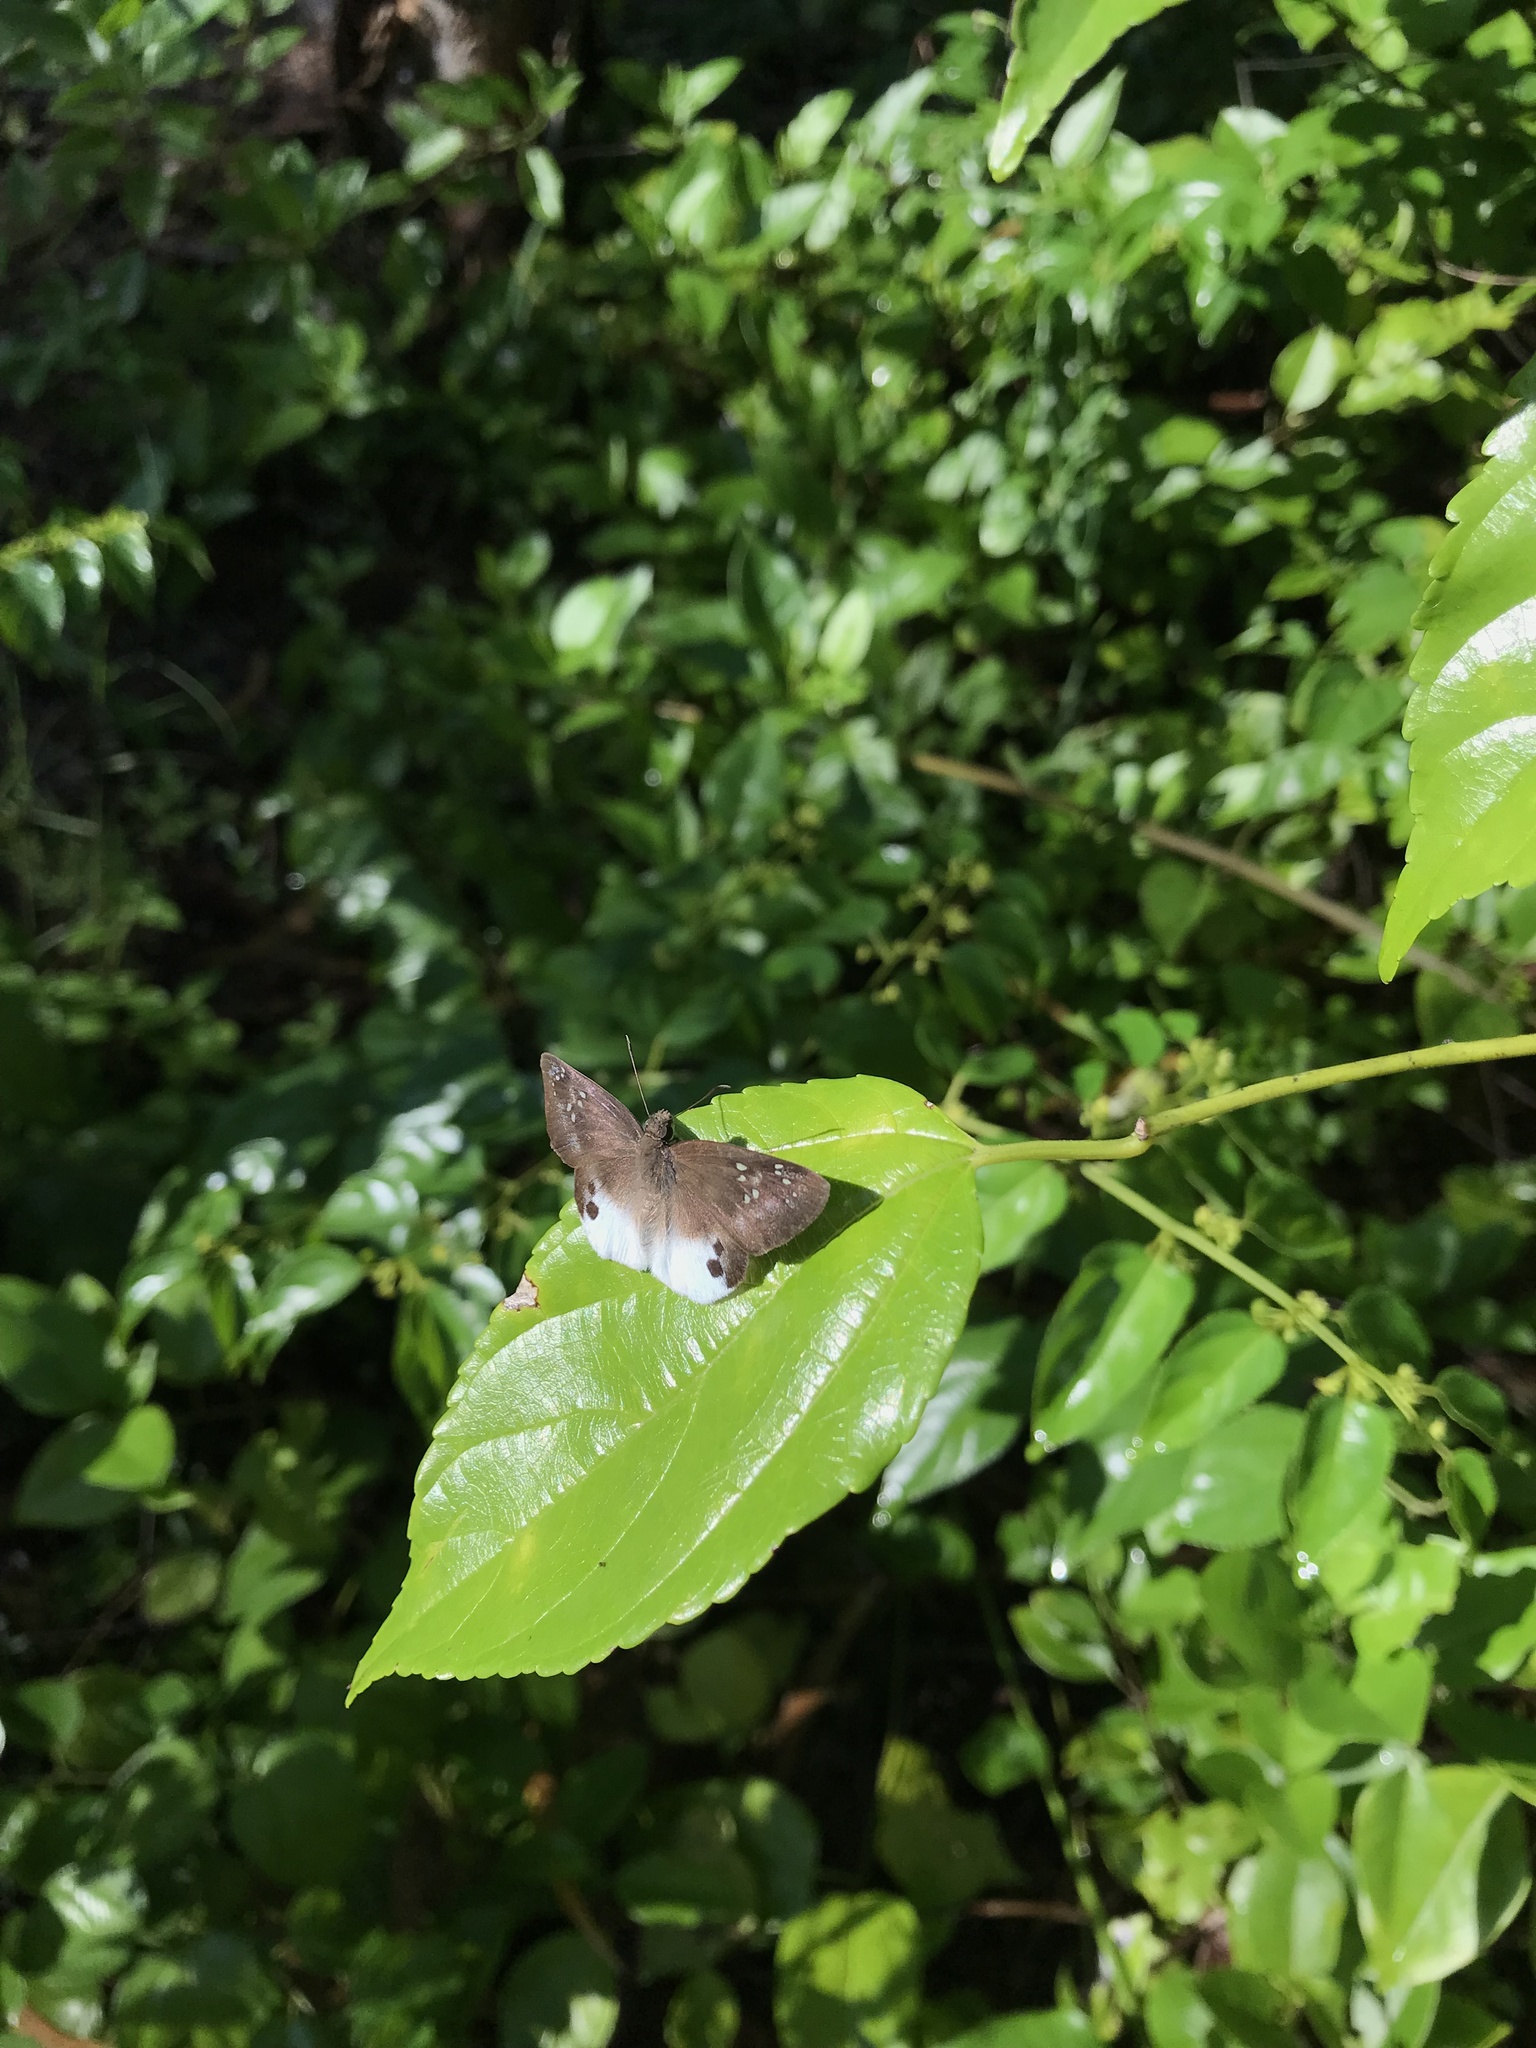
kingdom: Animalia
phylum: Arthropoda
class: Insecta
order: Lepidoptera
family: Hesperiidae
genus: Tagiades
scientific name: Tagiades japetus
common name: Pied flat
